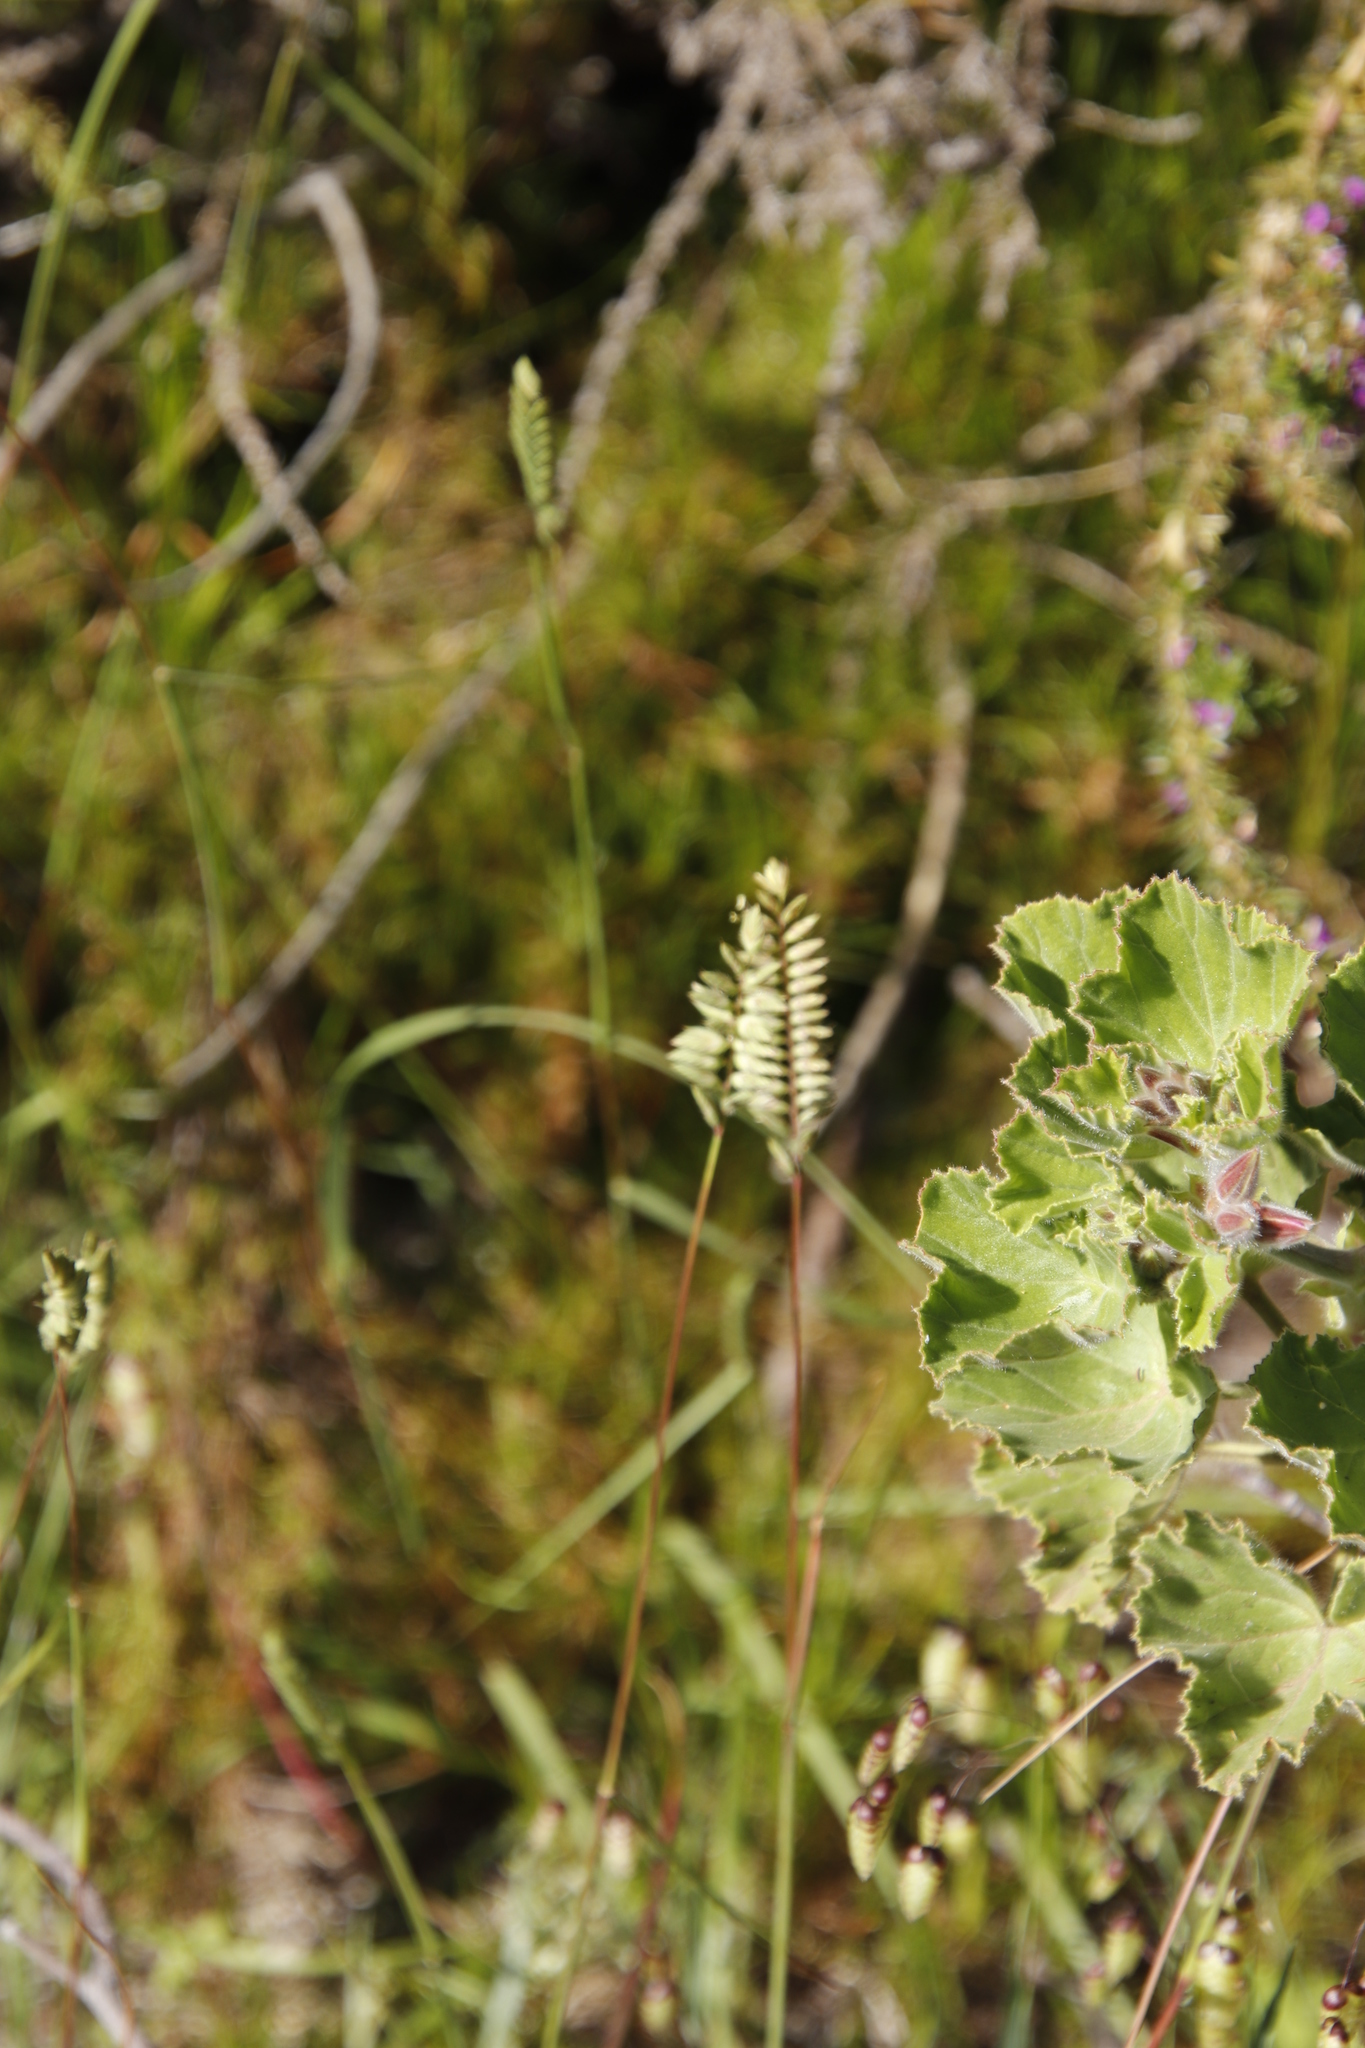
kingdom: Plantae
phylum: Tracheophyta
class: Liliopsida
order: Poales
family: Poaceae
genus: Tribolium
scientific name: Tribolium uniolae
